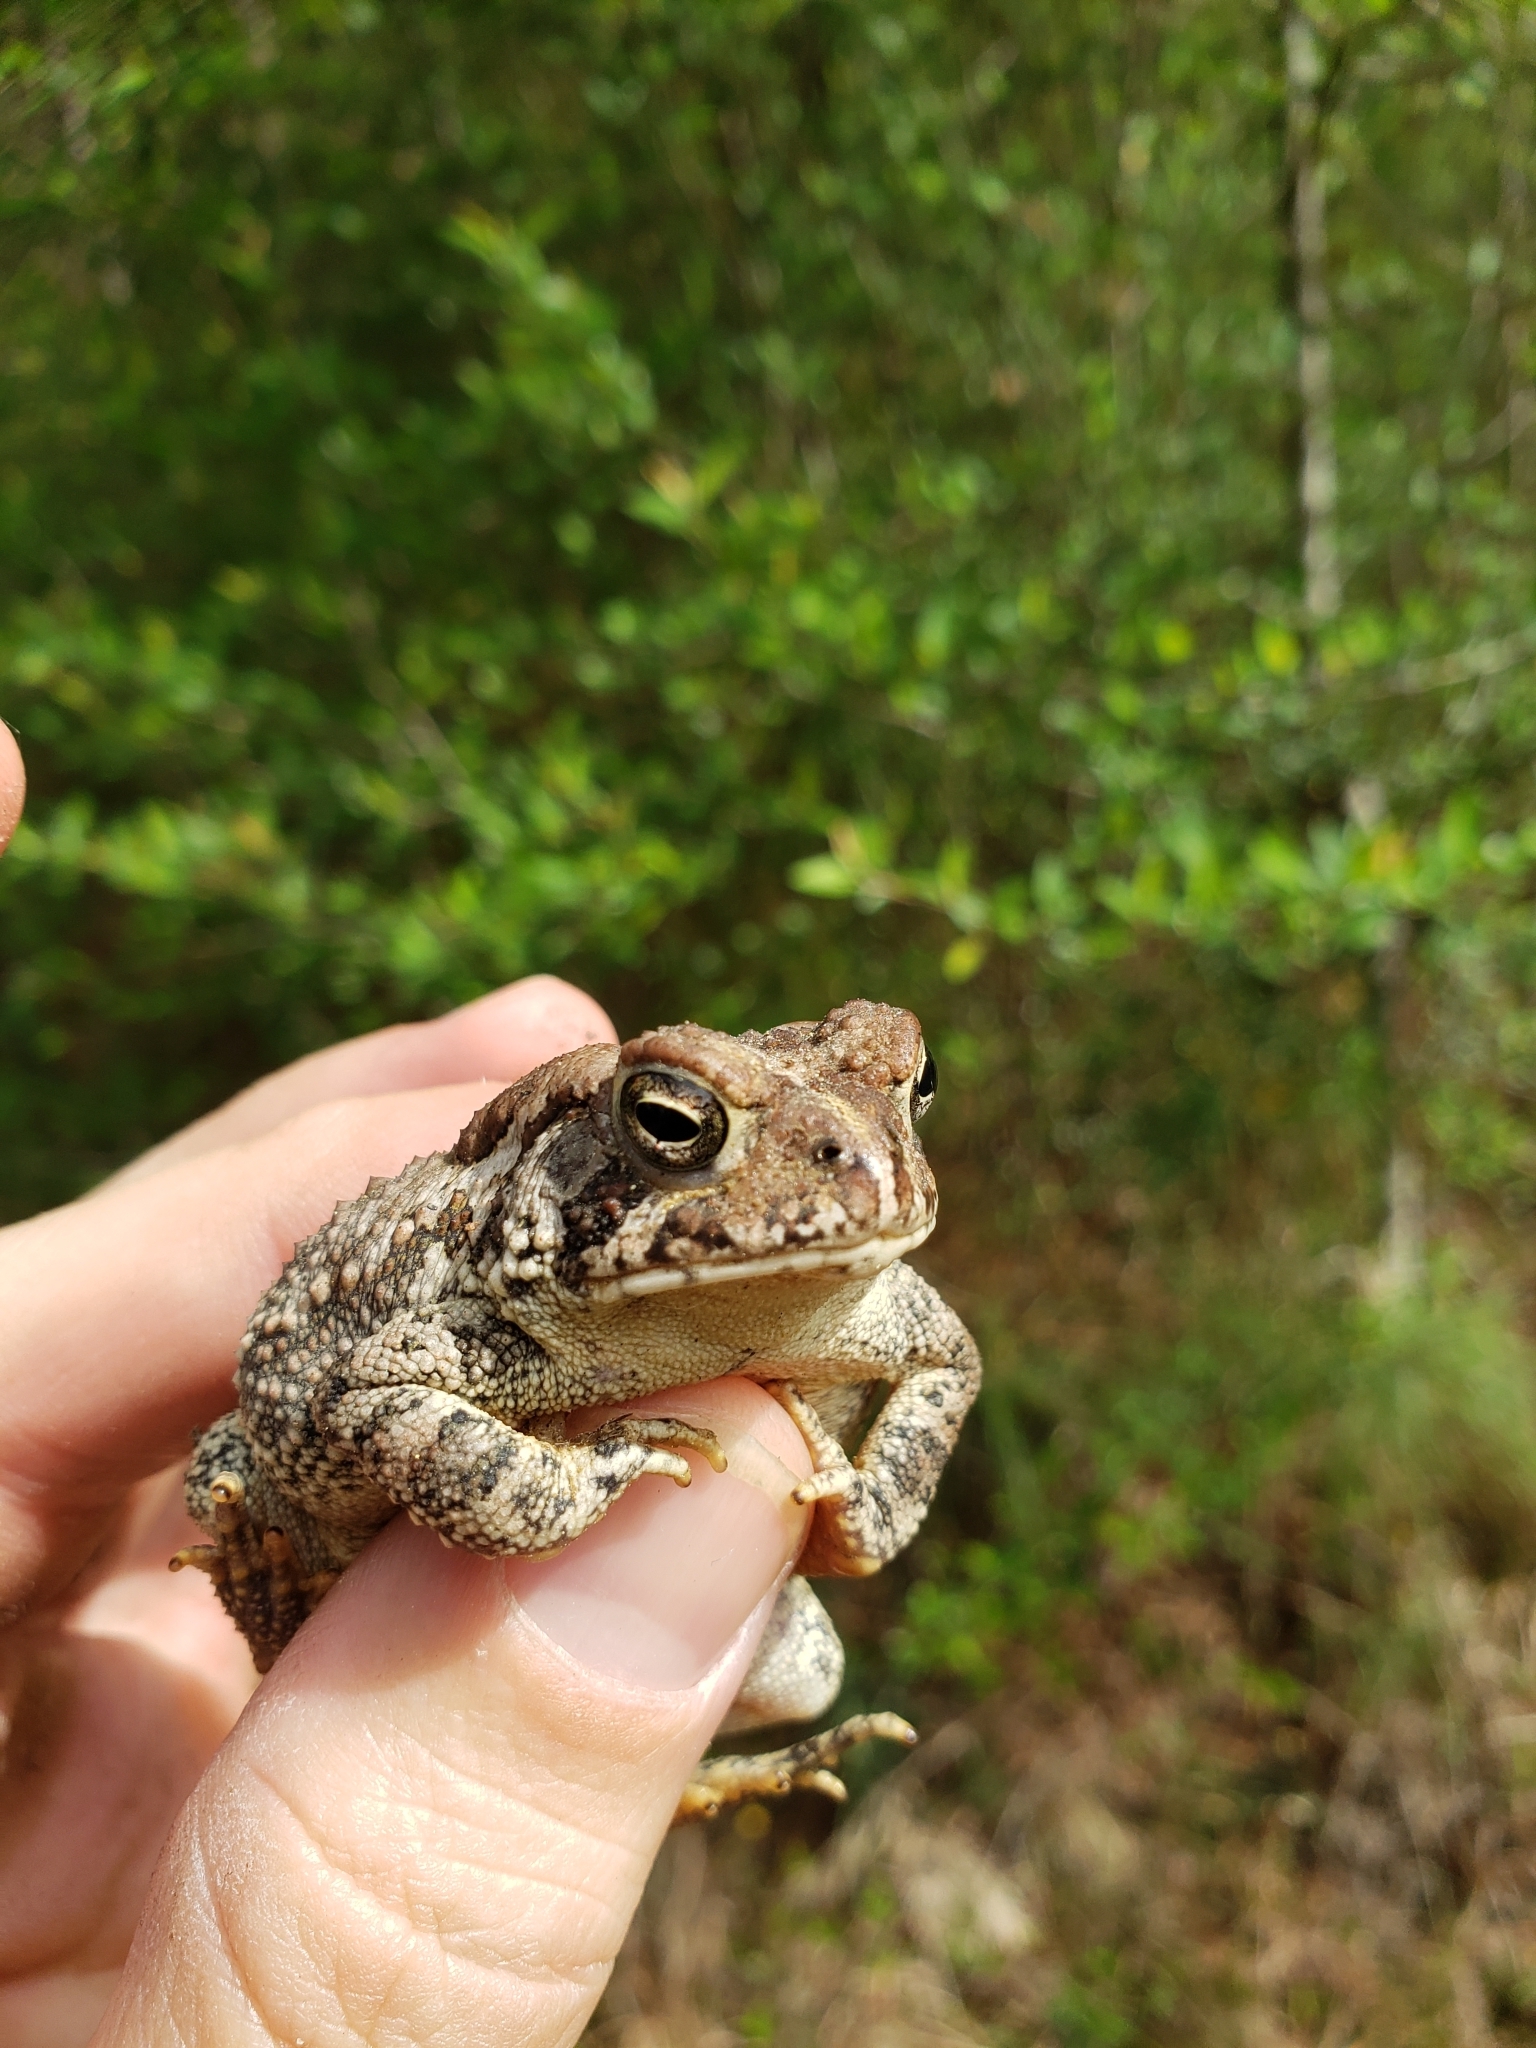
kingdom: Animalia
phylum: Chordata
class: Amphibia
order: Anura
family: Bufonidae
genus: Anaxyrus
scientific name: Anaxyrus fowleri
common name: Fowler's toad
